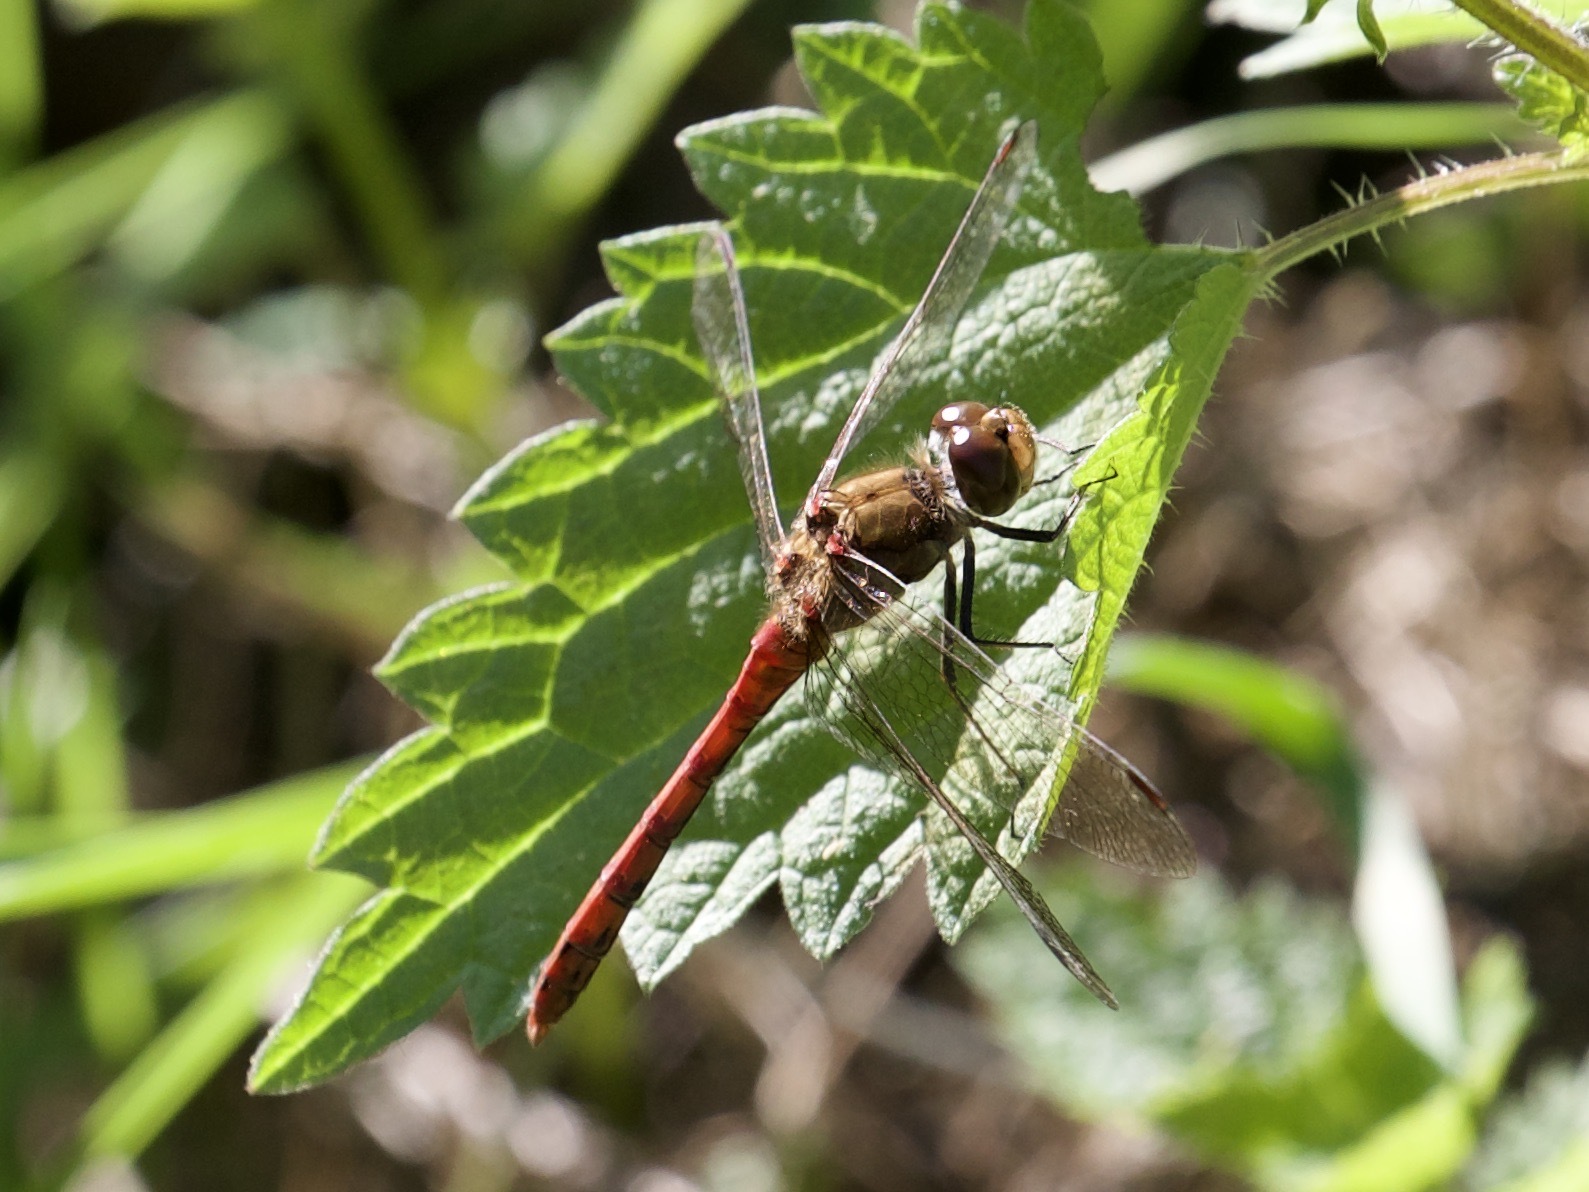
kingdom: Animalia
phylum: Arthropoda
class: Insecta
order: Odonata
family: Libellulidae
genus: Sympetrum
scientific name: Sympetrum striolatum
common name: Common darter
